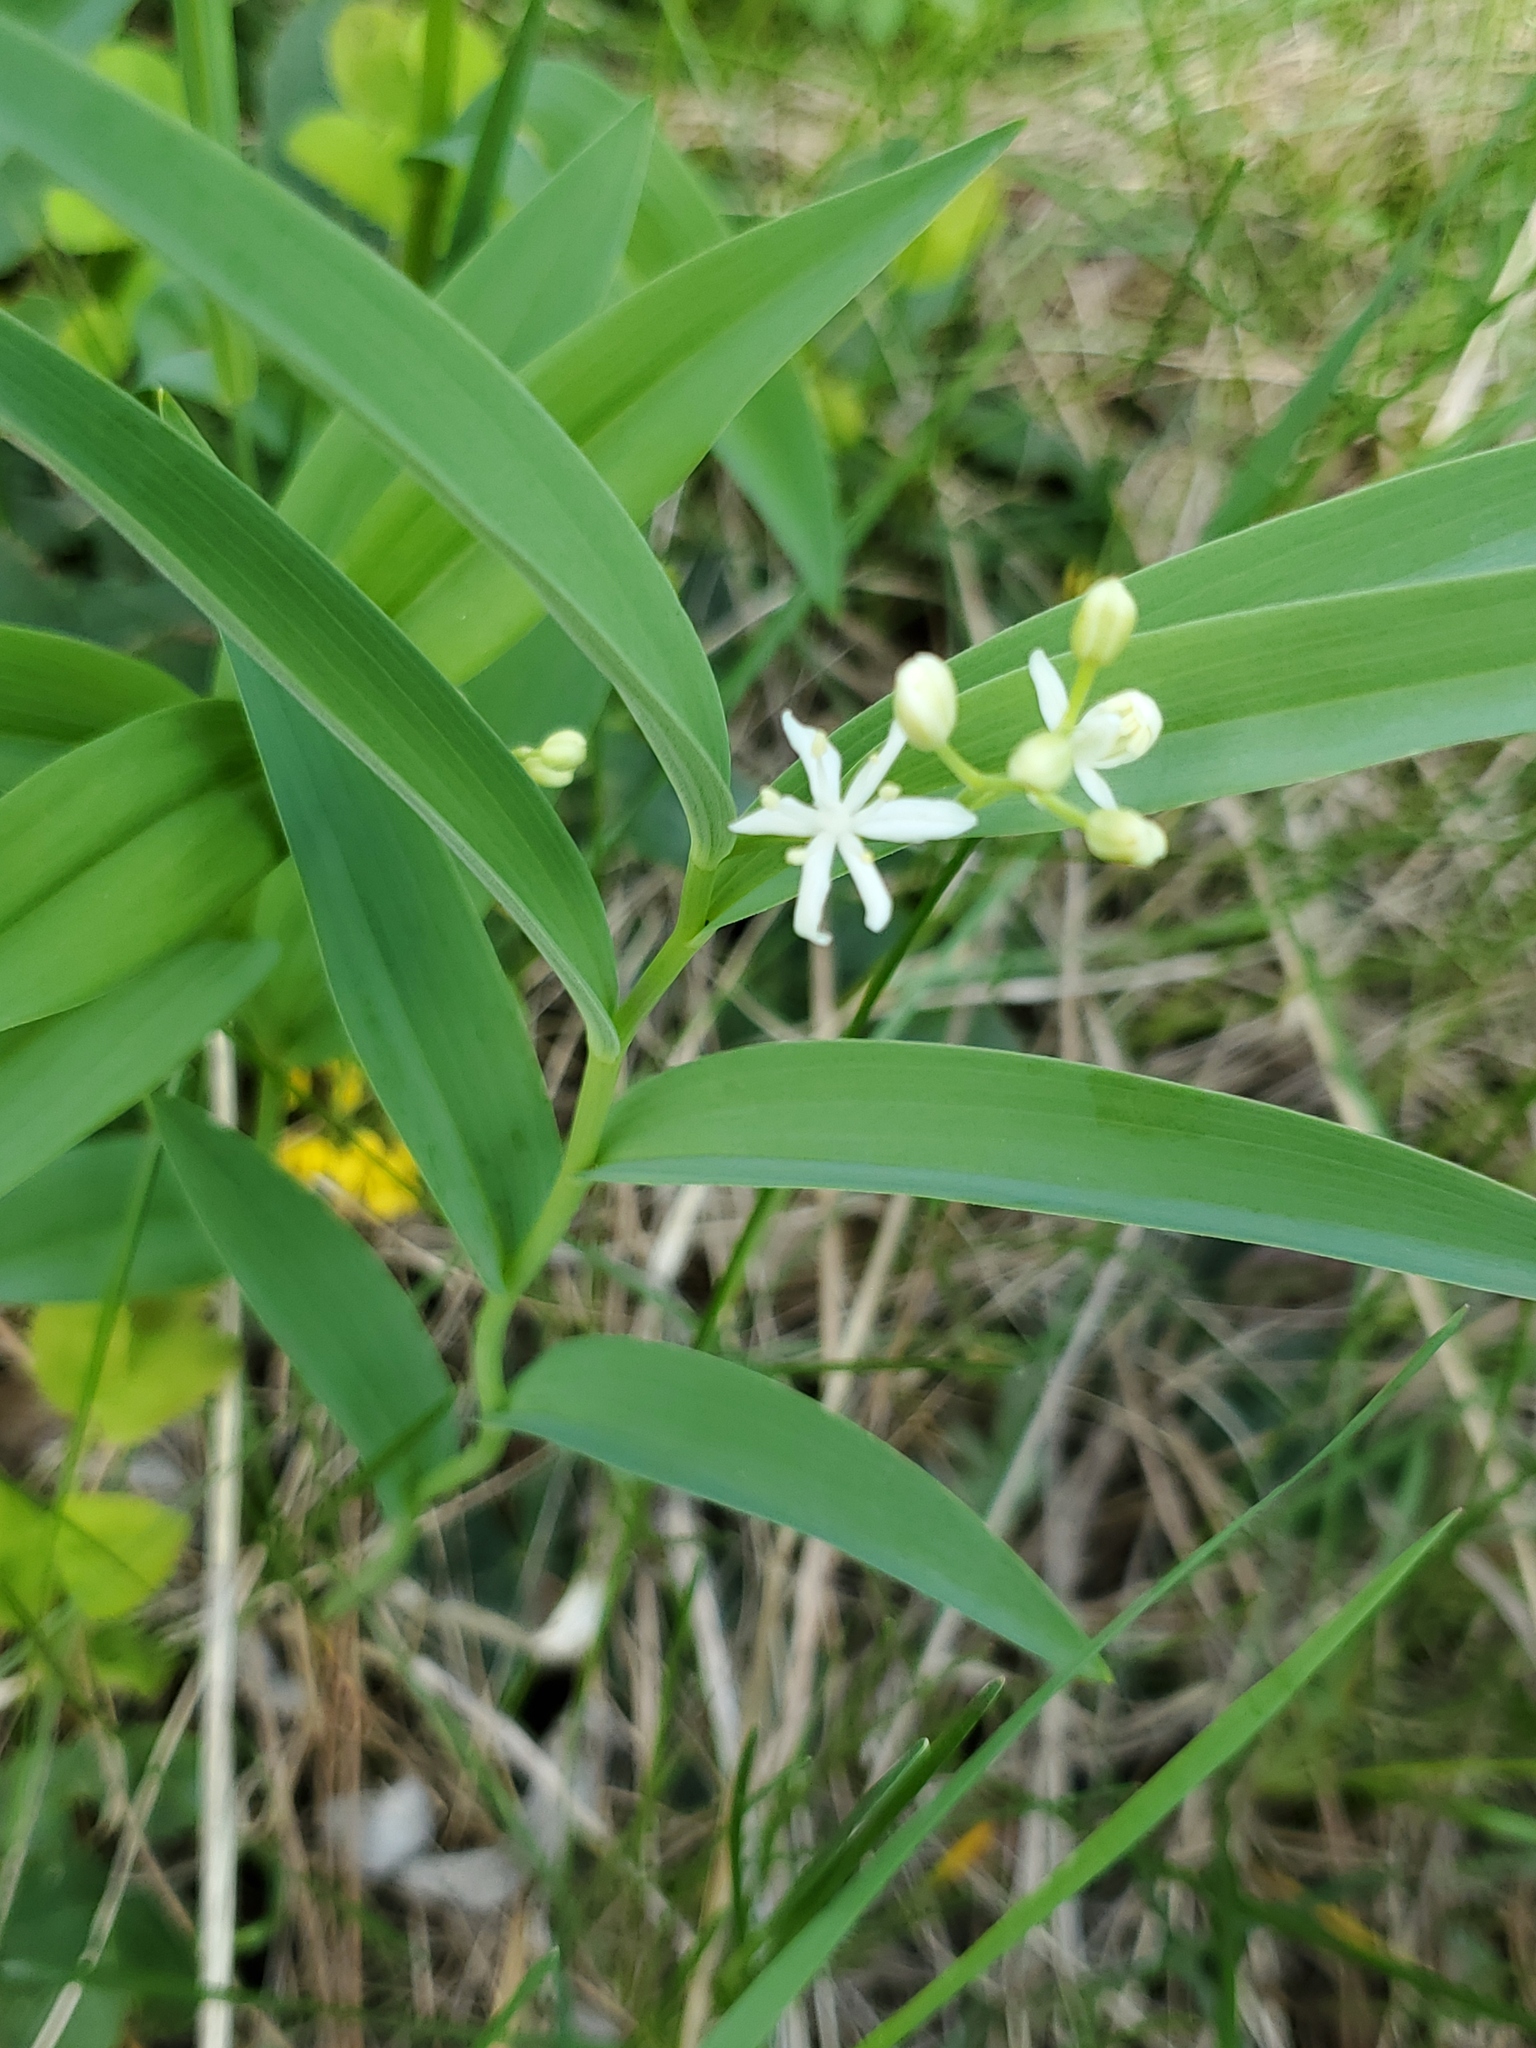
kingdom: Plantae
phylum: Tracheophyta
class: Liliopsida
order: Asparagales
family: Asparagaceae
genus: Maianthemum
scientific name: Maianthemum stellatum
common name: Little false solomon's seal
